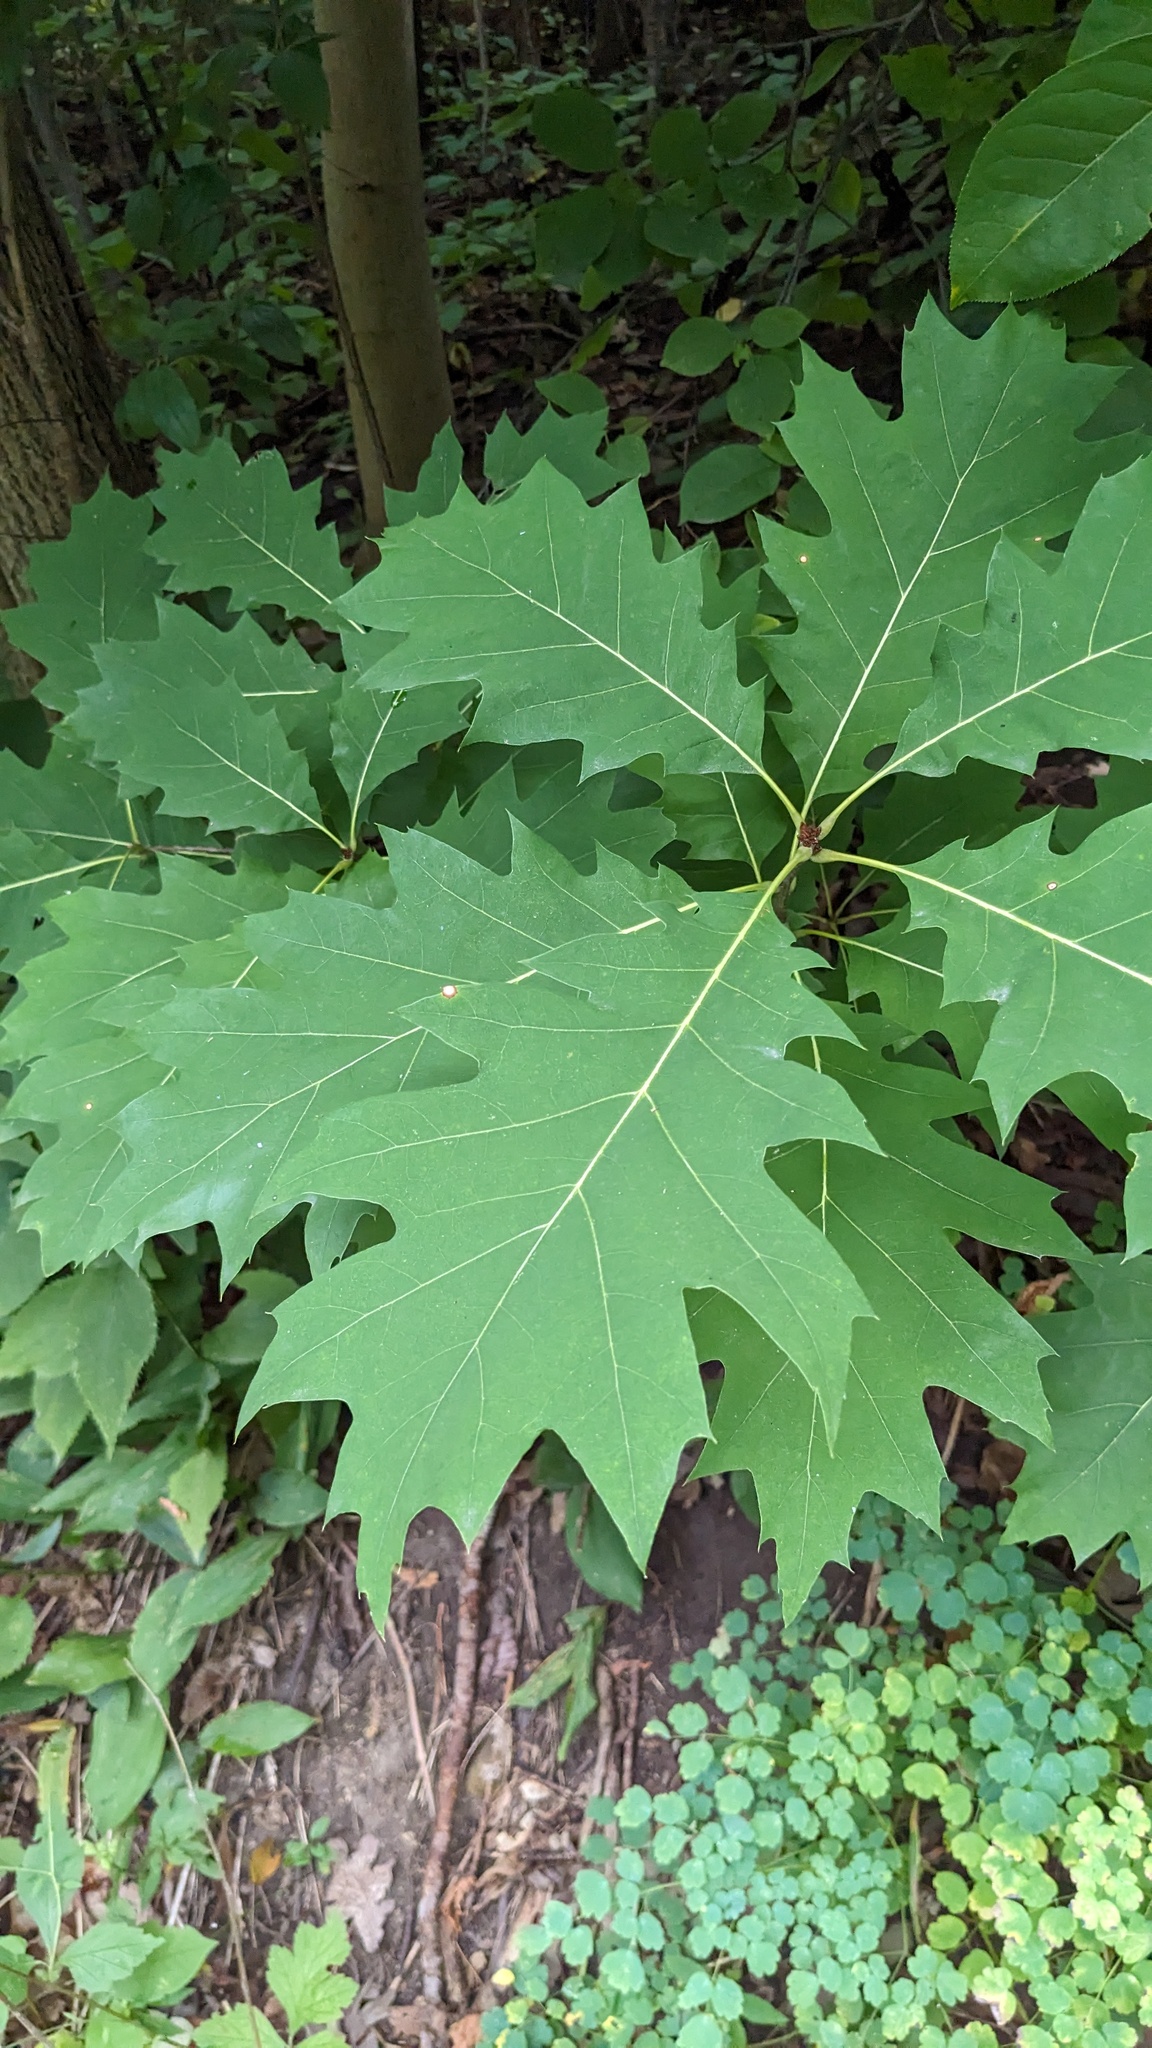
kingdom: Plantae
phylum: Tracheophyta
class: Magnoliopsida
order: Fagales
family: Fagaceae
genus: Quercus
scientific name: Quercus rubra
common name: Red oak
